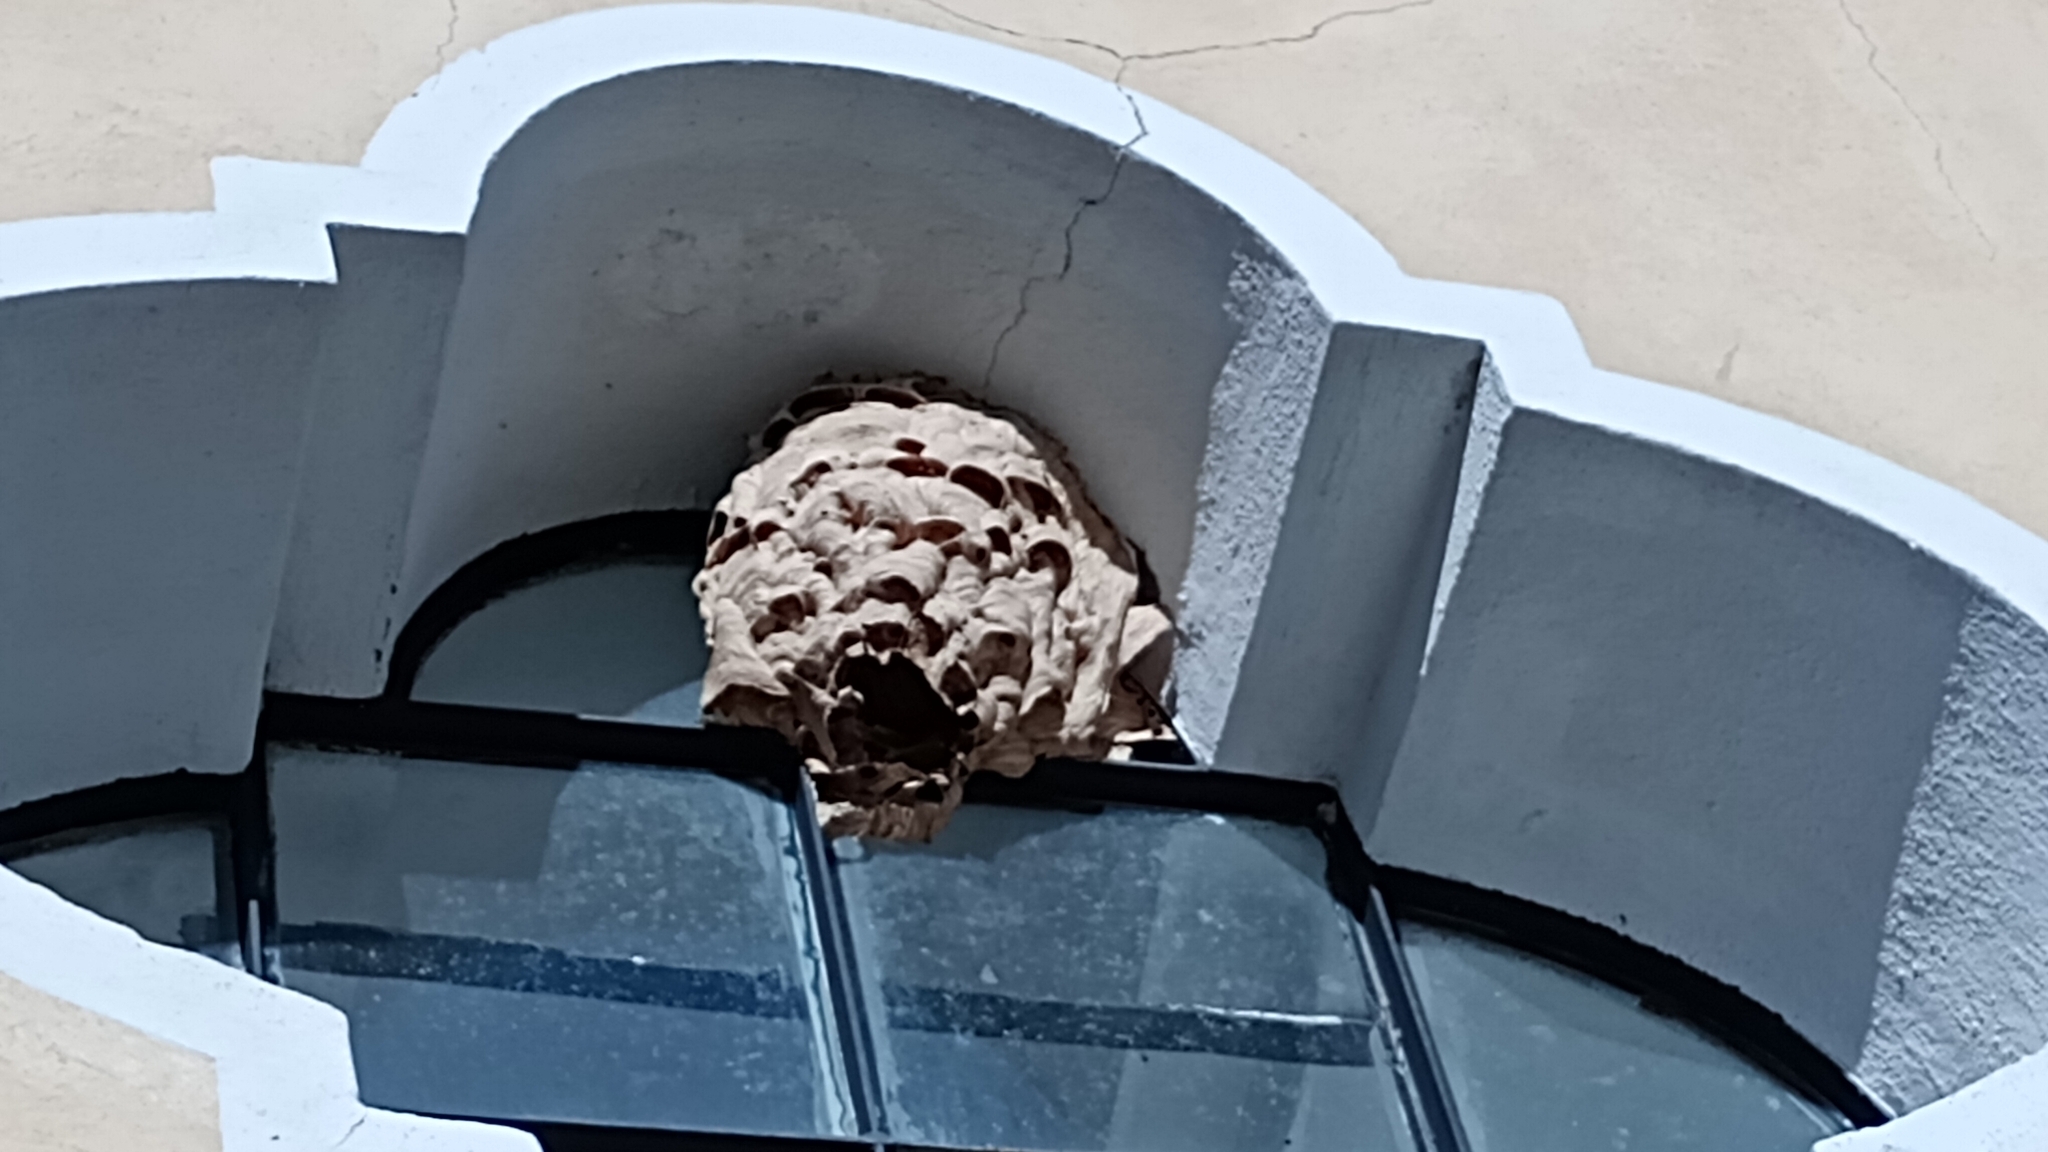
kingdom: Animalia
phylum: Arthropoda
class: Insecta
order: Hymenoptera
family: Vespidae
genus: Vespa
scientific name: Vespa crabro
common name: Hornet
